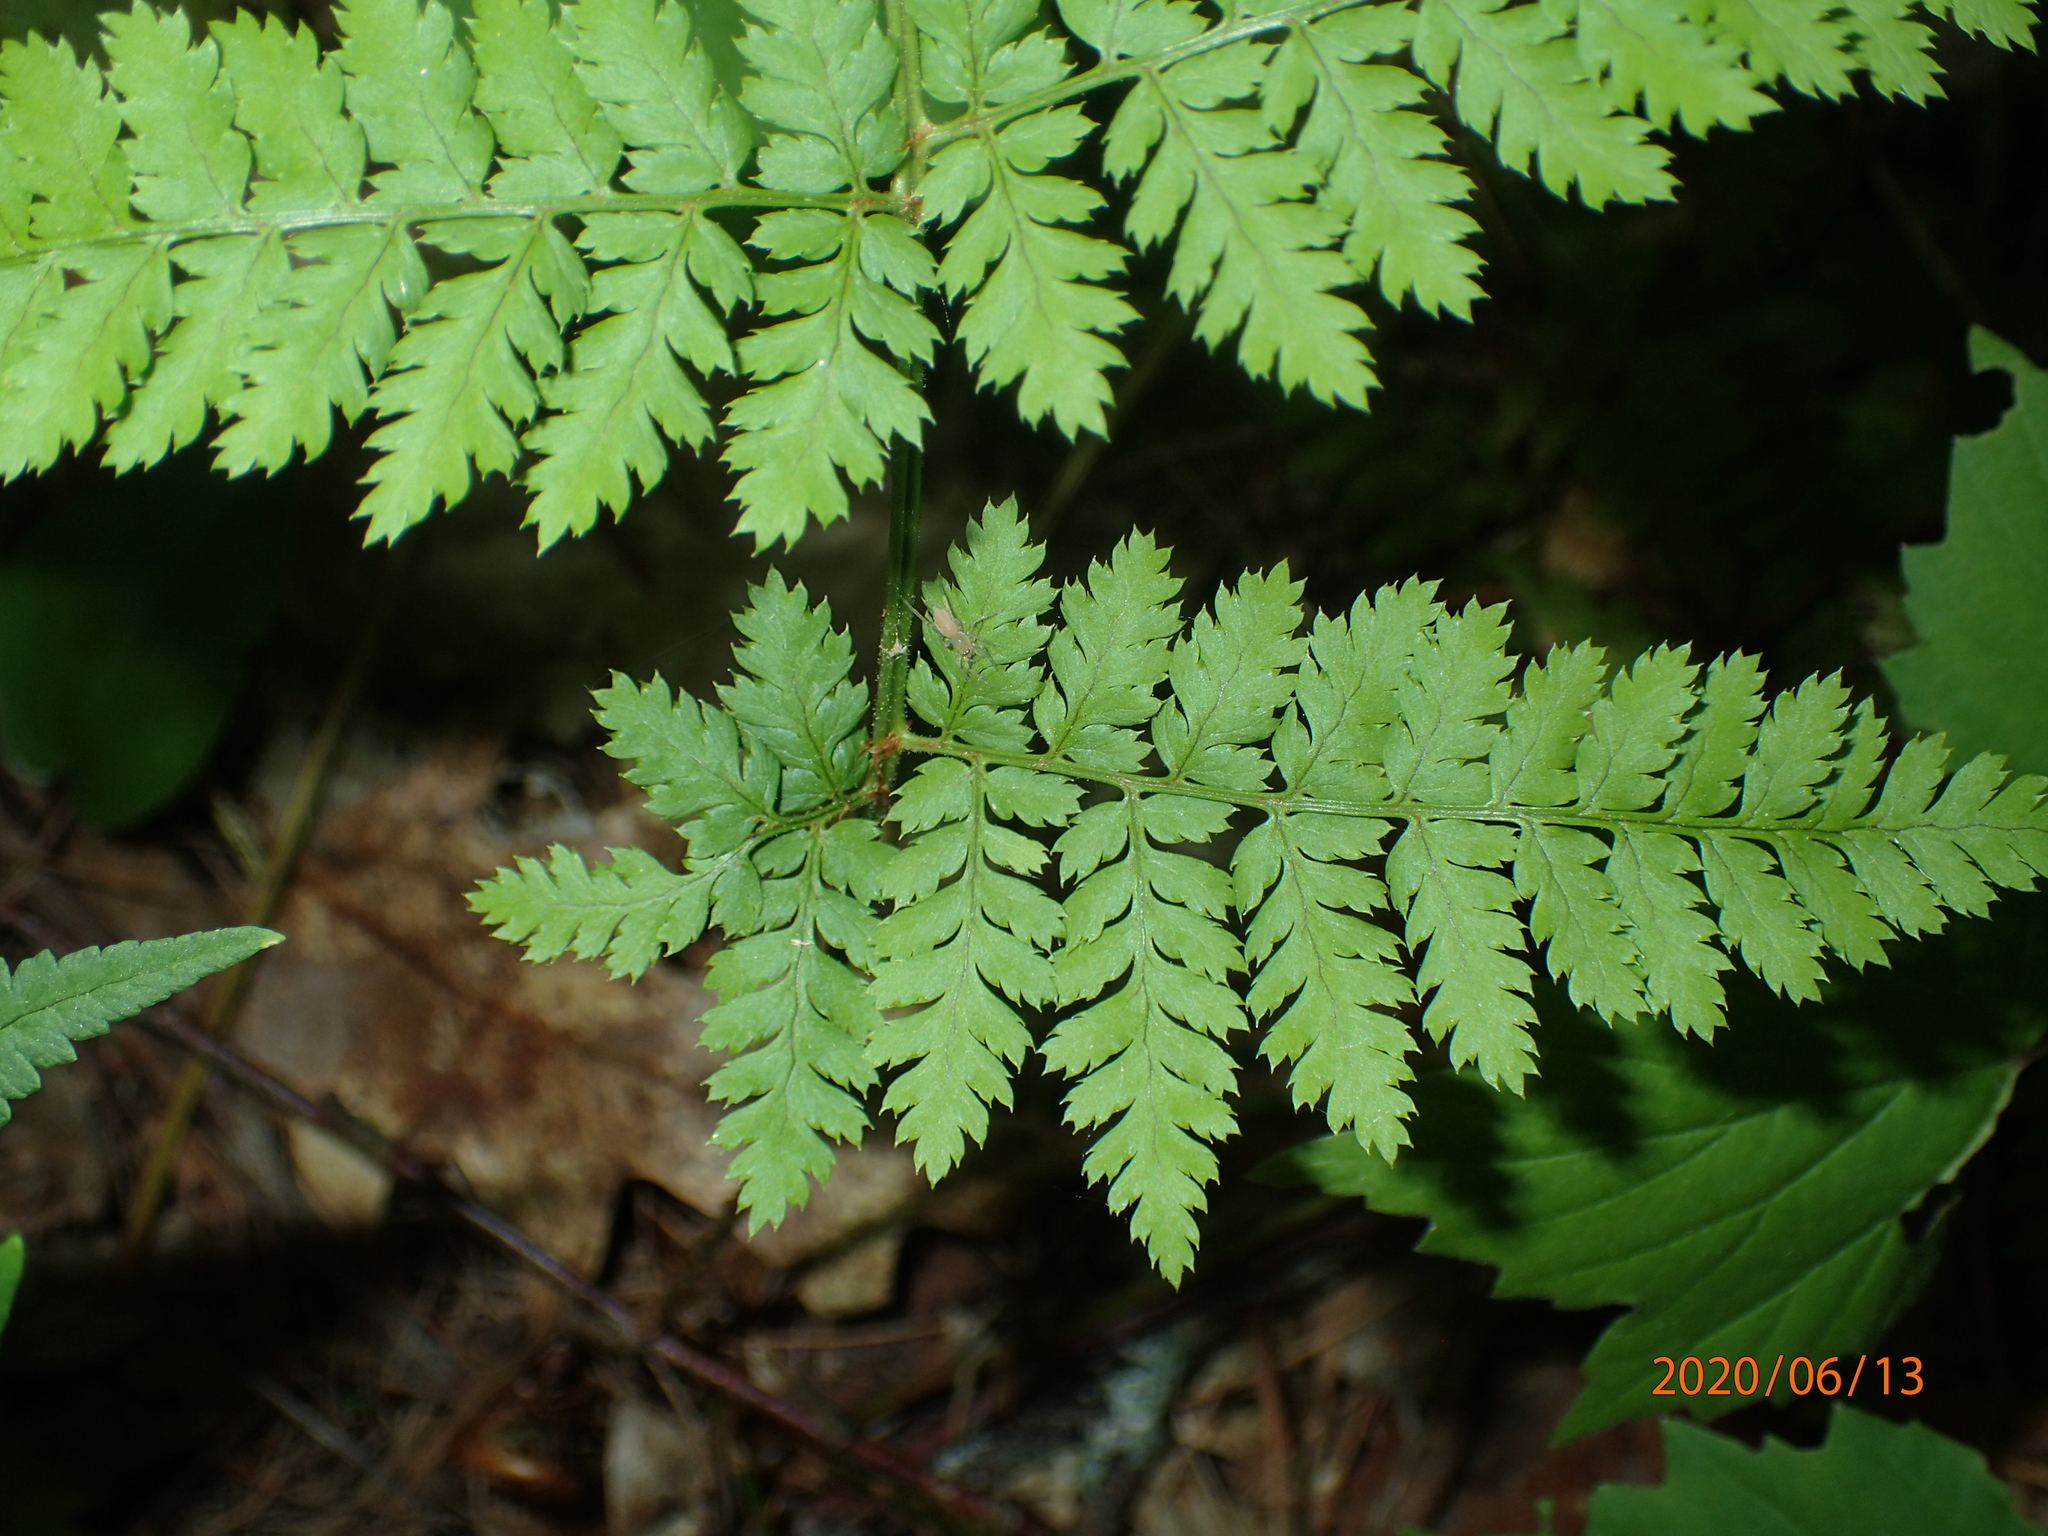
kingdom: Plantae
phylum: Tracheophyta
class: Polypodiopsida
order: Polypodiales
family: Dryopteridaceae
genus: Dryopteris
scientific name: Dryopteris intermedia
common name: Evergreen wood fern
